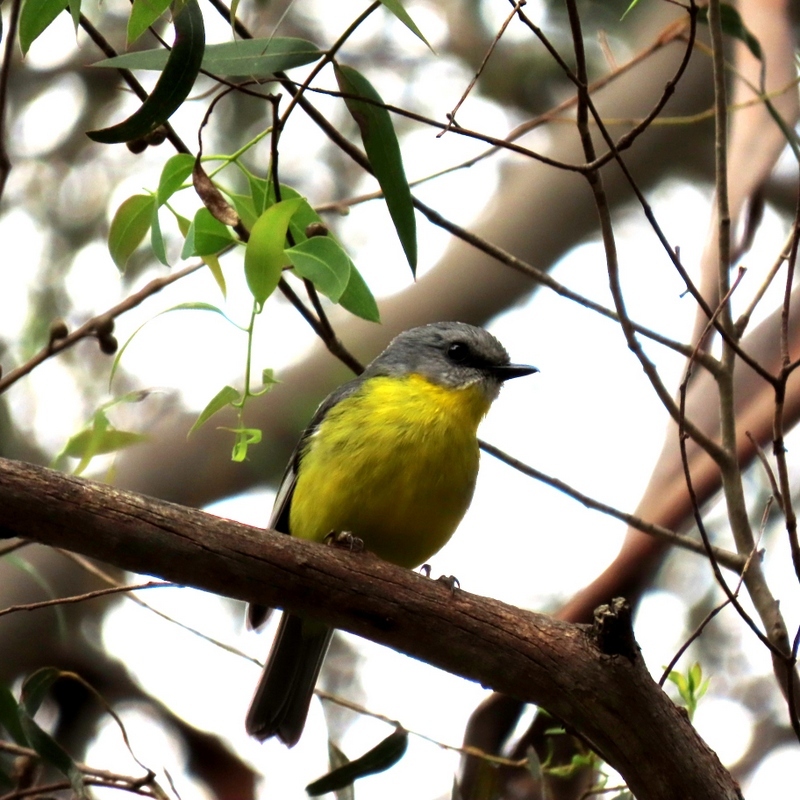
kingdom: Animalia
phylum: Chordata
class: Aves
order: Passeriformes
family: Petroicidae
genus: Eopsaltria
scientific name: Eopsaltria australis
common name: Eastern yellow robin
